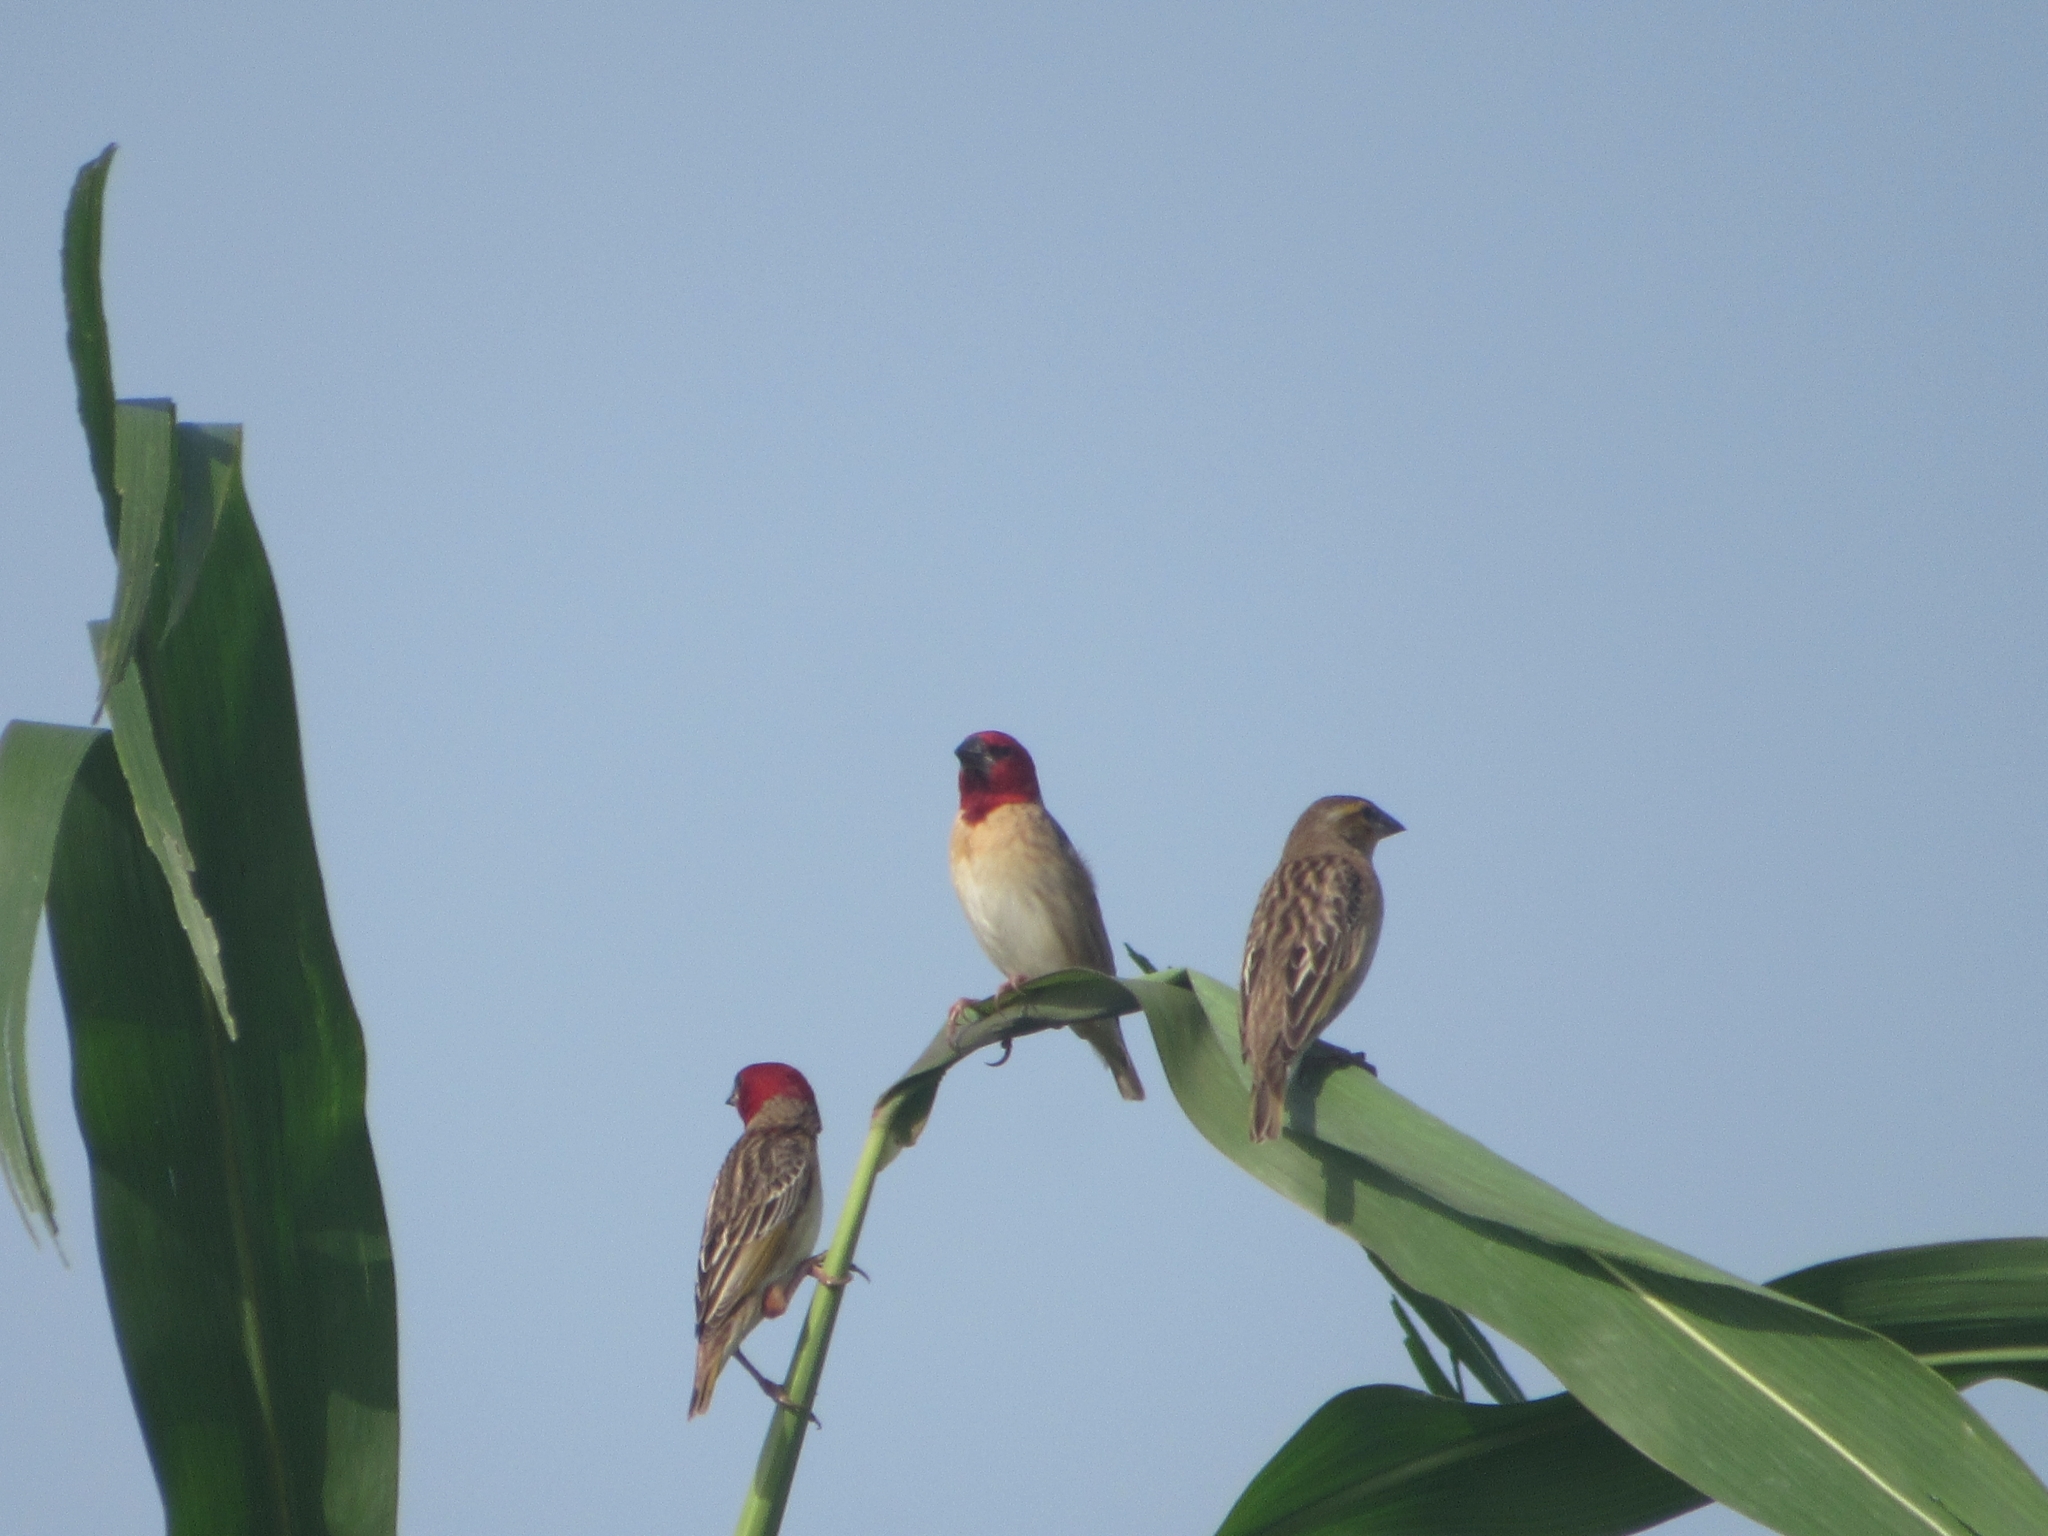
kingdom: Animalia
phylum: Chordata
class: Aves
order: Passeriformes
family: Ploceidae
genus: Quelea
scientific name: Quelea erythrops
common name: Red-headed quelea
